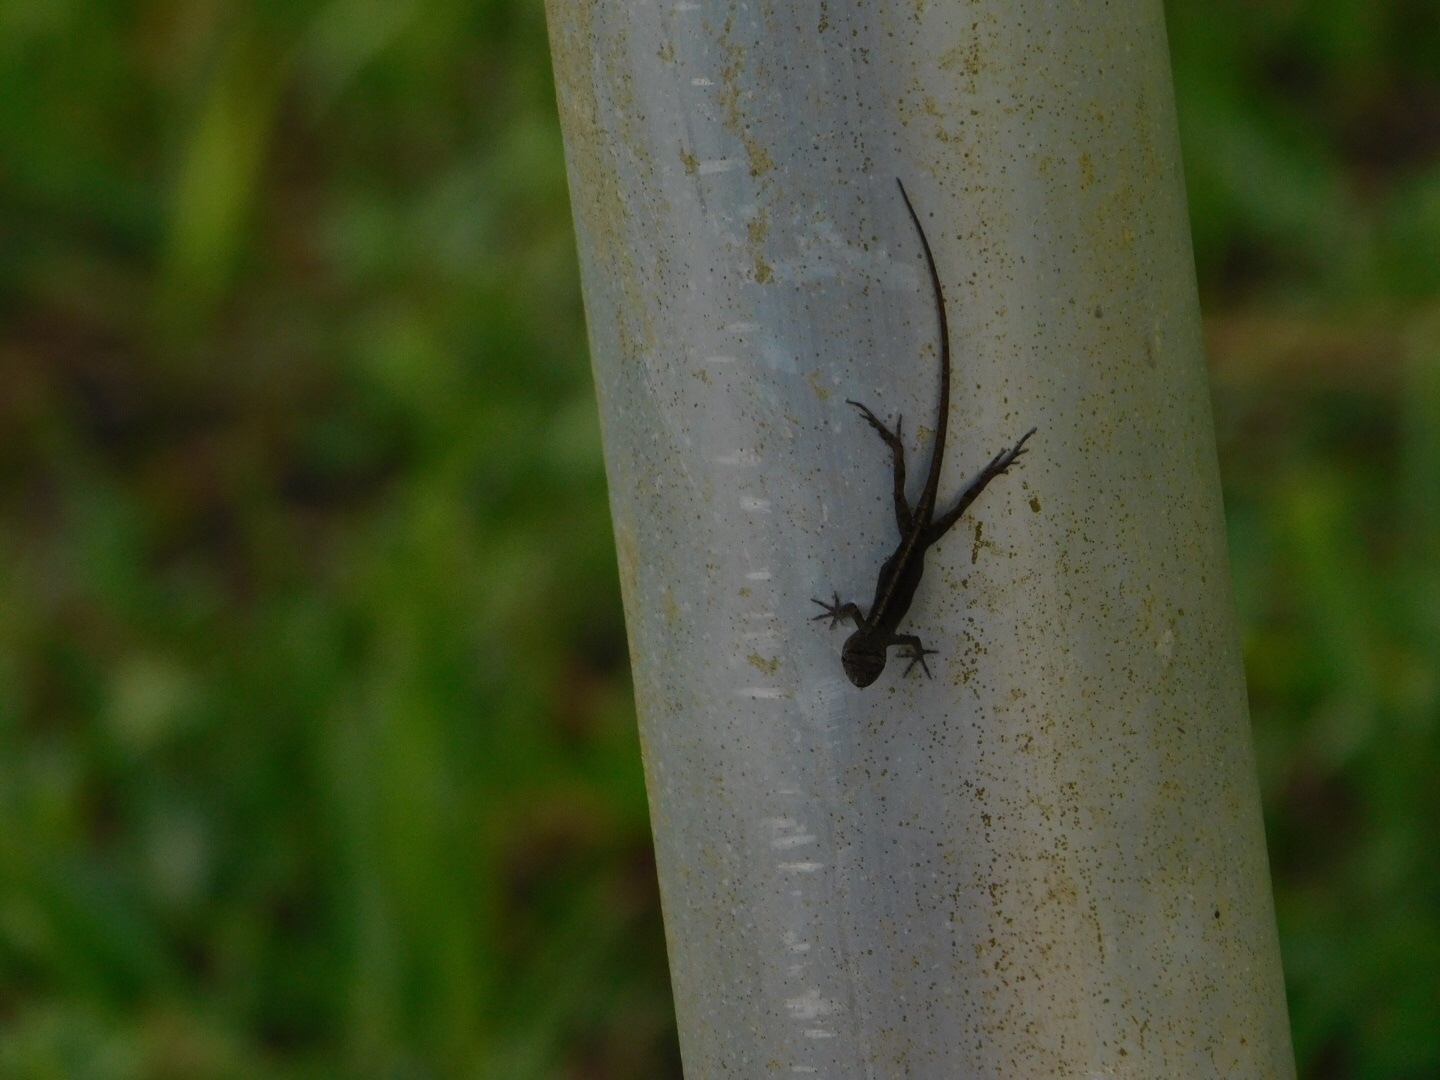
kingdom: Animalia
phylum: Chordata
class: Squamata
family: Dactyloidae
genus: Anolis
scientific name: Anolis sagrei
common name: Brown anole
